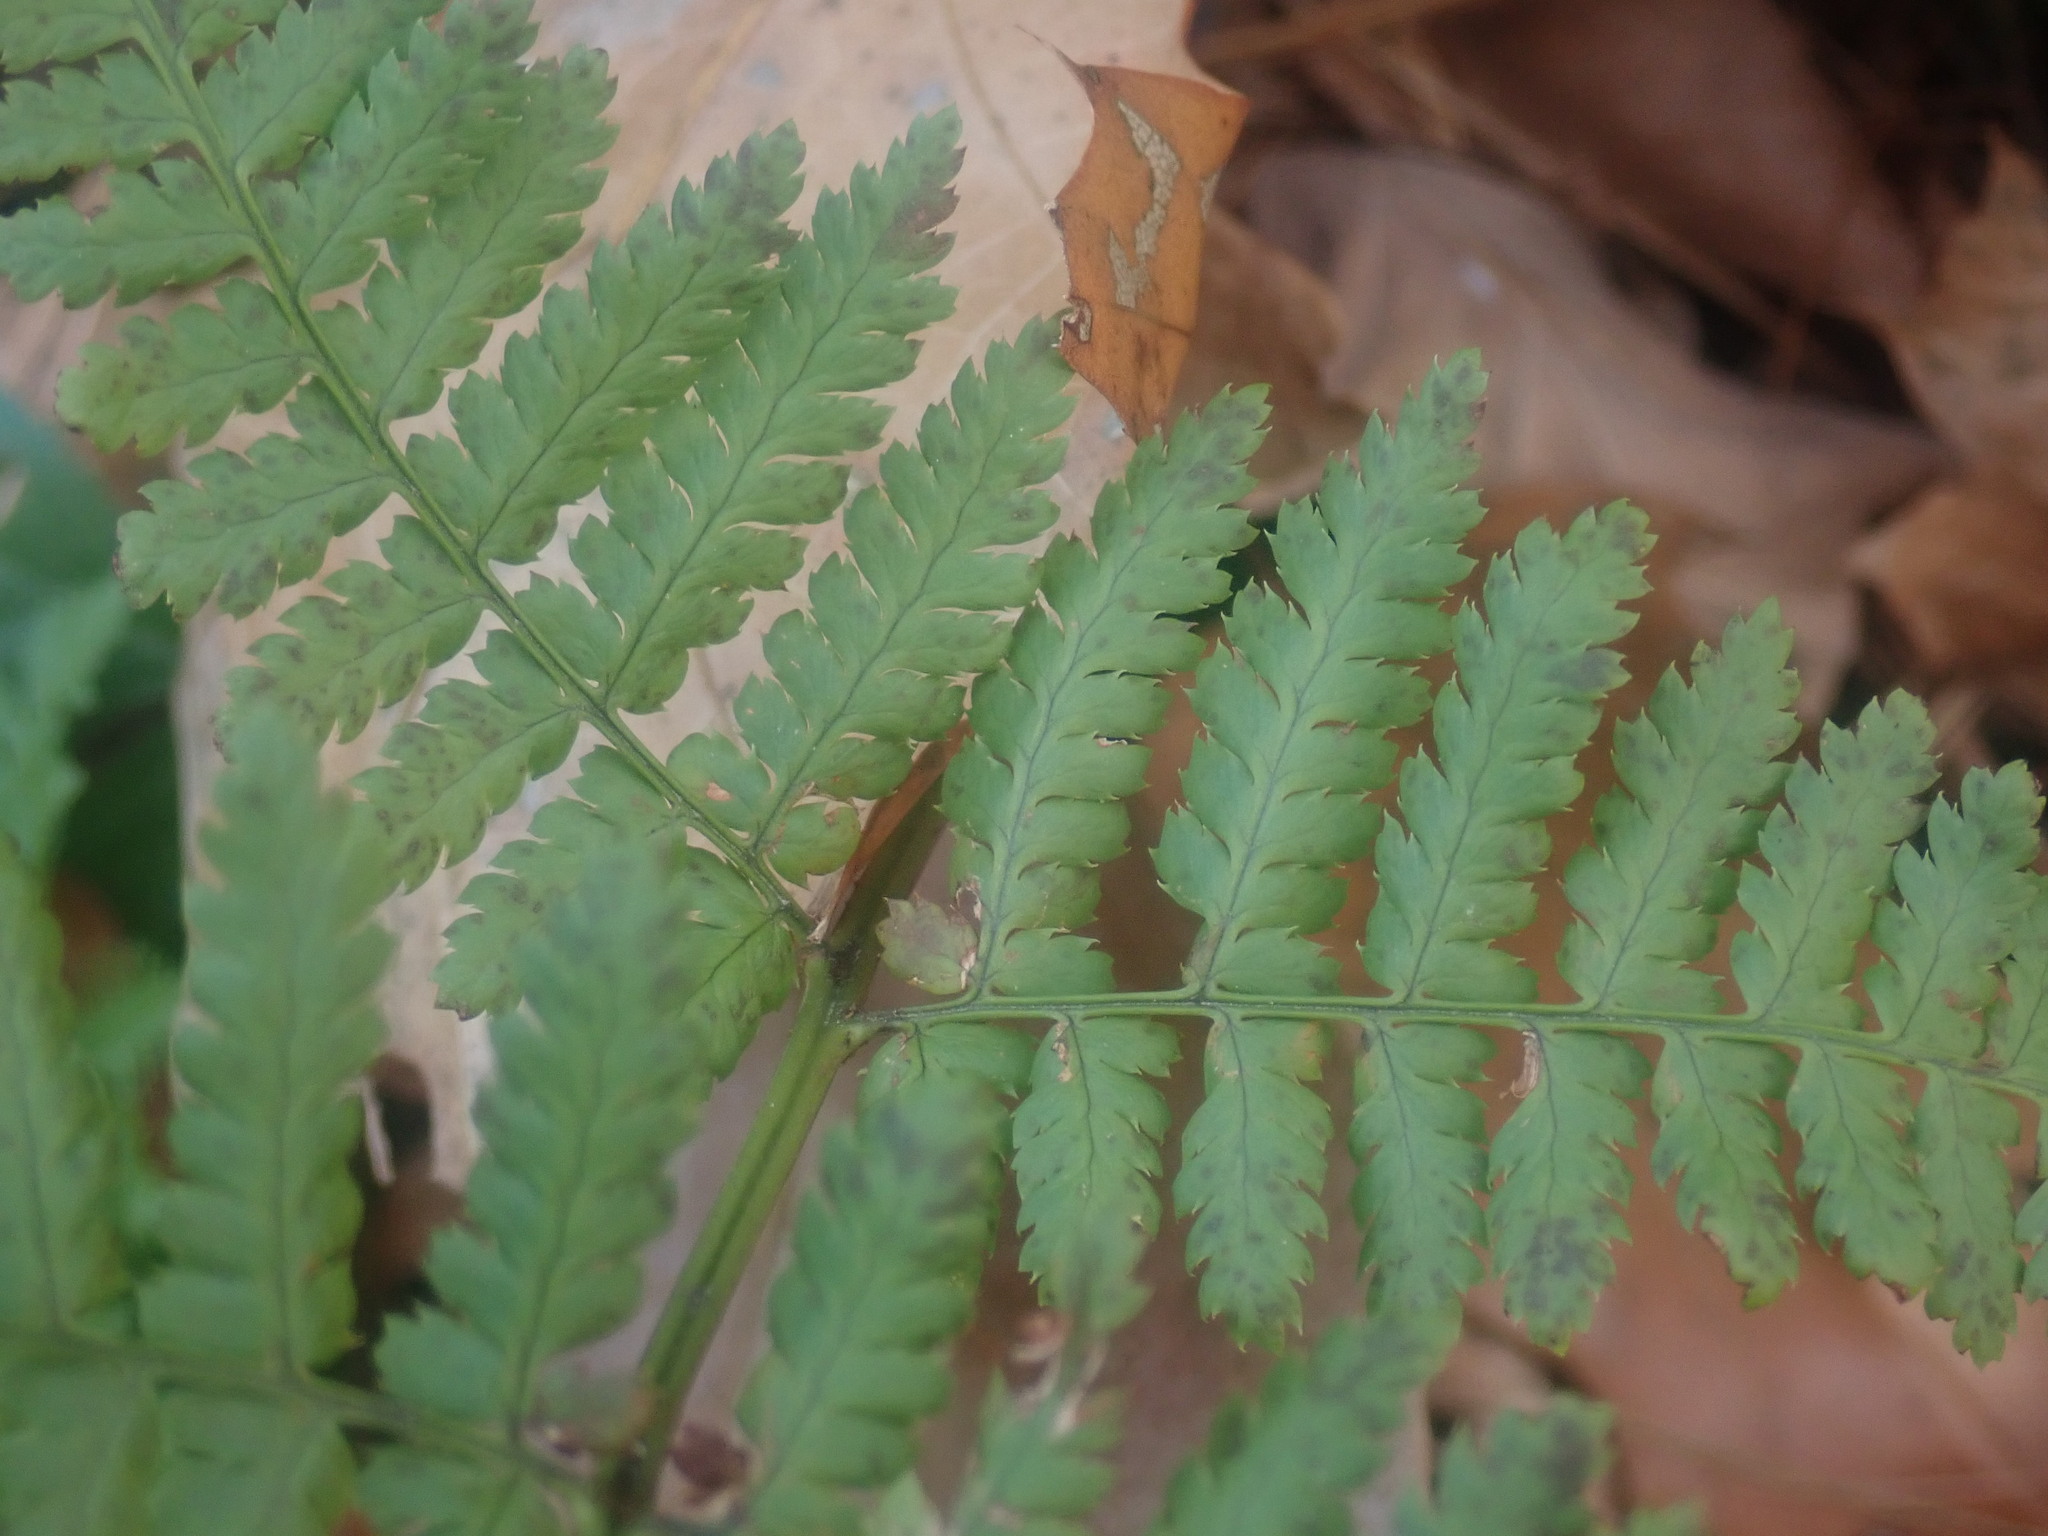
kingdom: Plantae
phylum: Tracheophyta
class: Polypodiopsida
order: Polypodiales
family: Dryopteridaceae
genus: Dryopteris
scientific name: Dryopteris intermedia
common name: Evergreen wood fern
